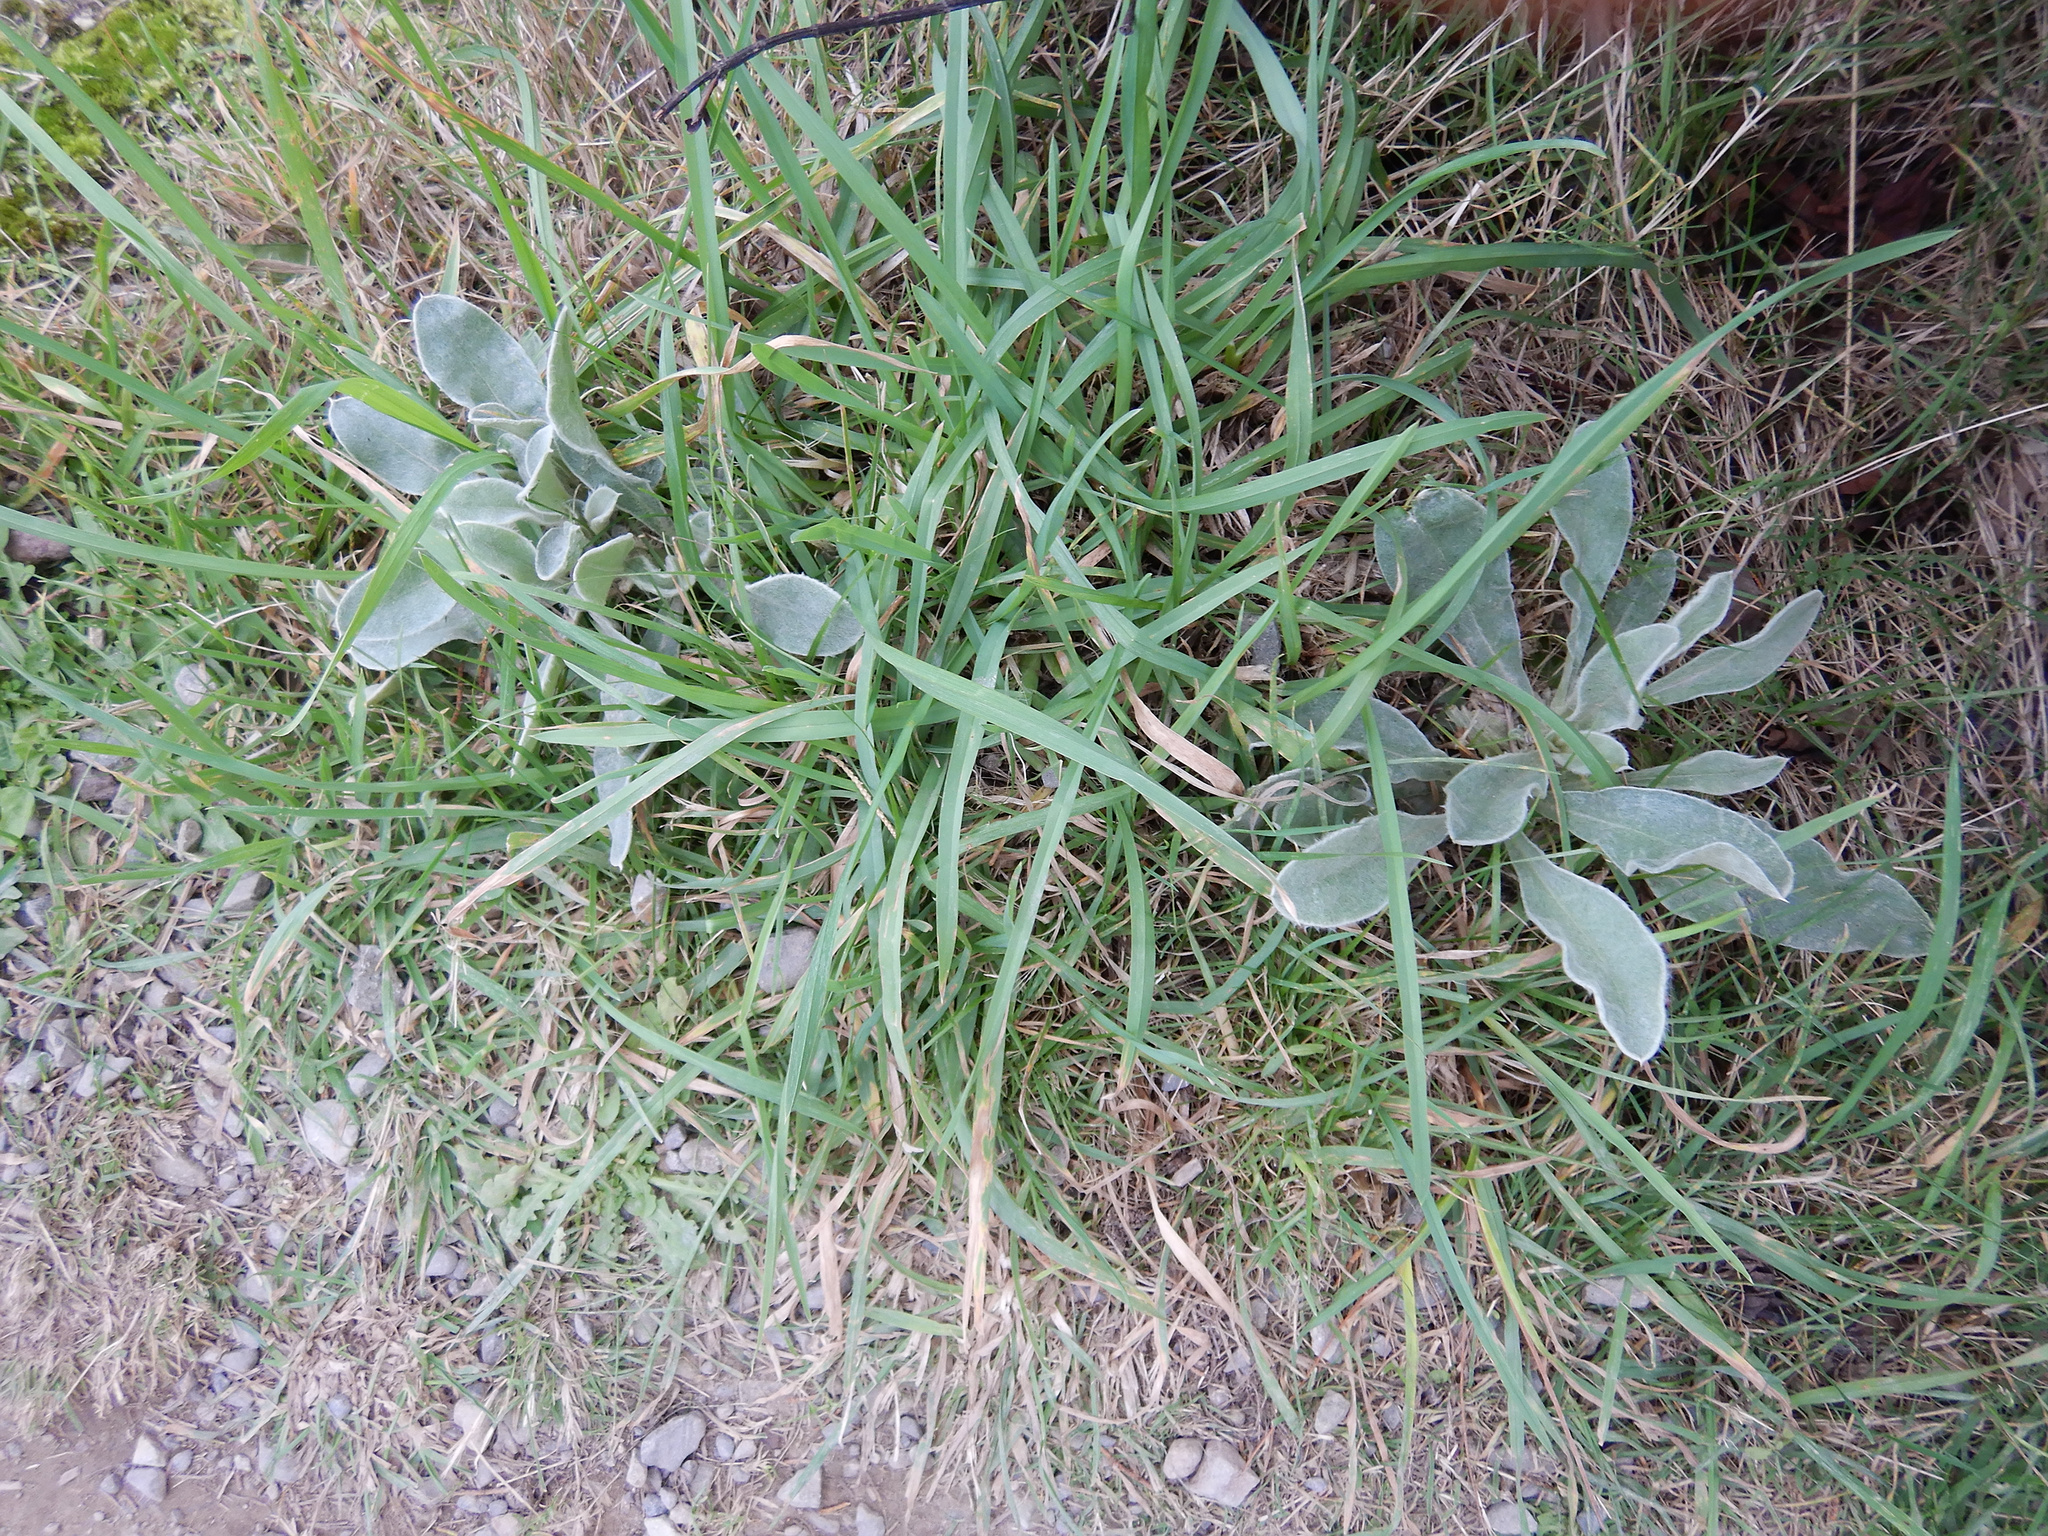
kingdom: Plantae
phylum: Tracheophyta
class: Magnoliopsida
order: Brassicales
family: Brassicaceae
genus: Matthiola
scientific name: Matthiola incana
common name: Hoary stock
